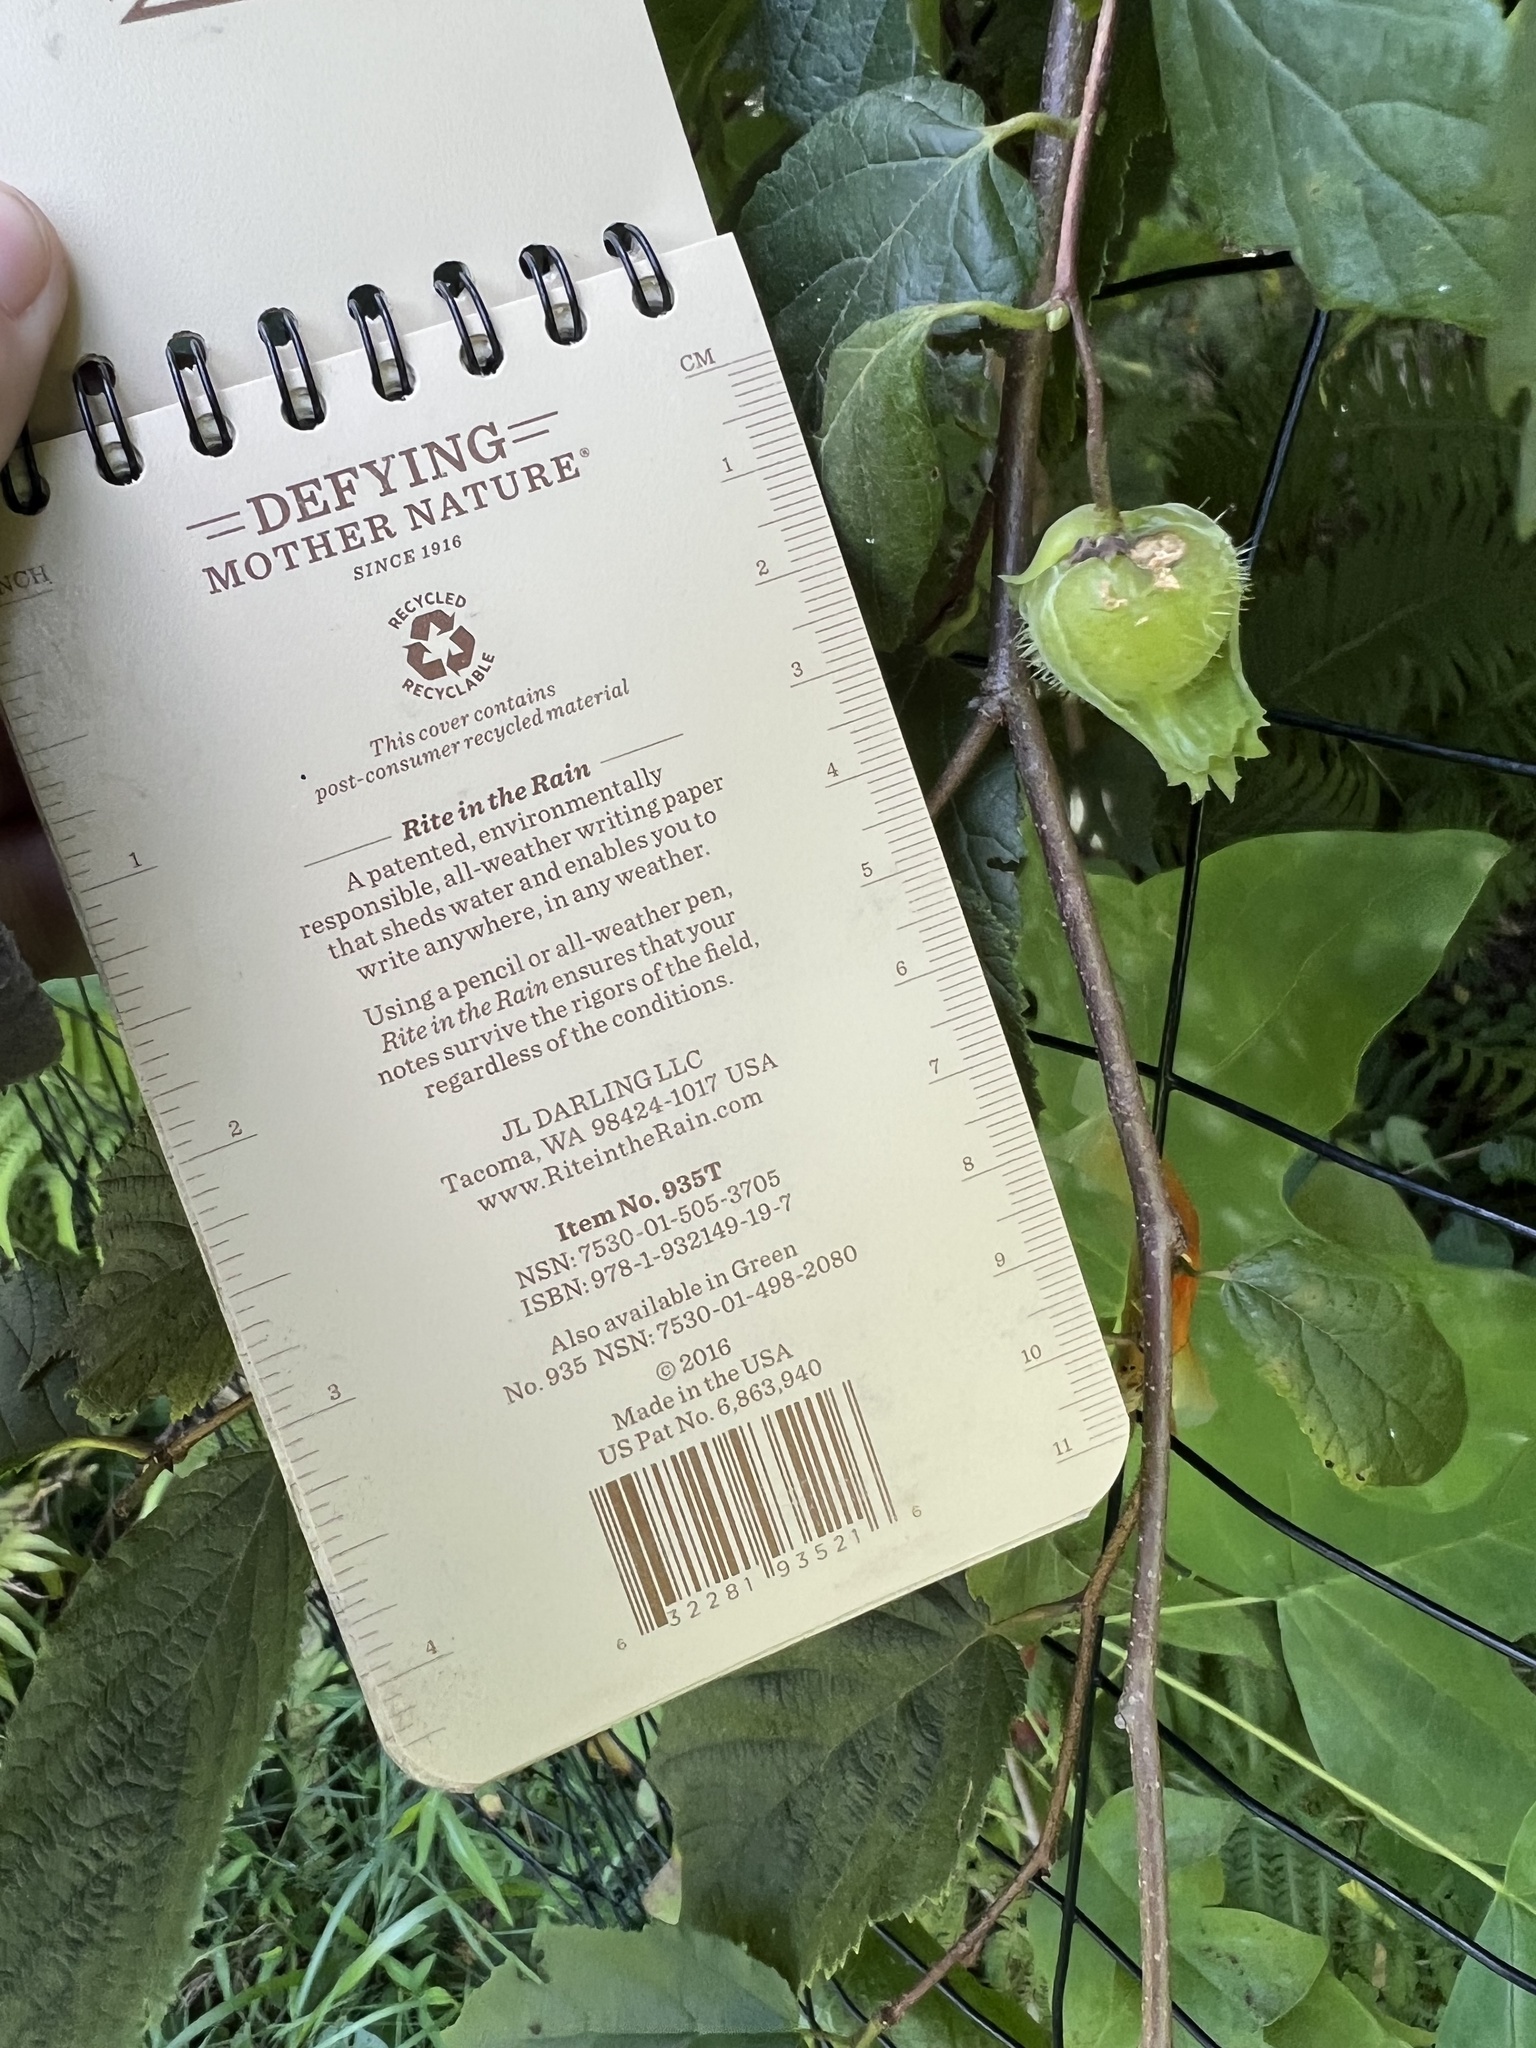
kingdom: Plantae
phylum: Tracheophyta
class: Magnoliopsida
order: Fagales
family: Betulaceae
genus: Corylus
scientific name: Corylus americana
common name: American hazel
